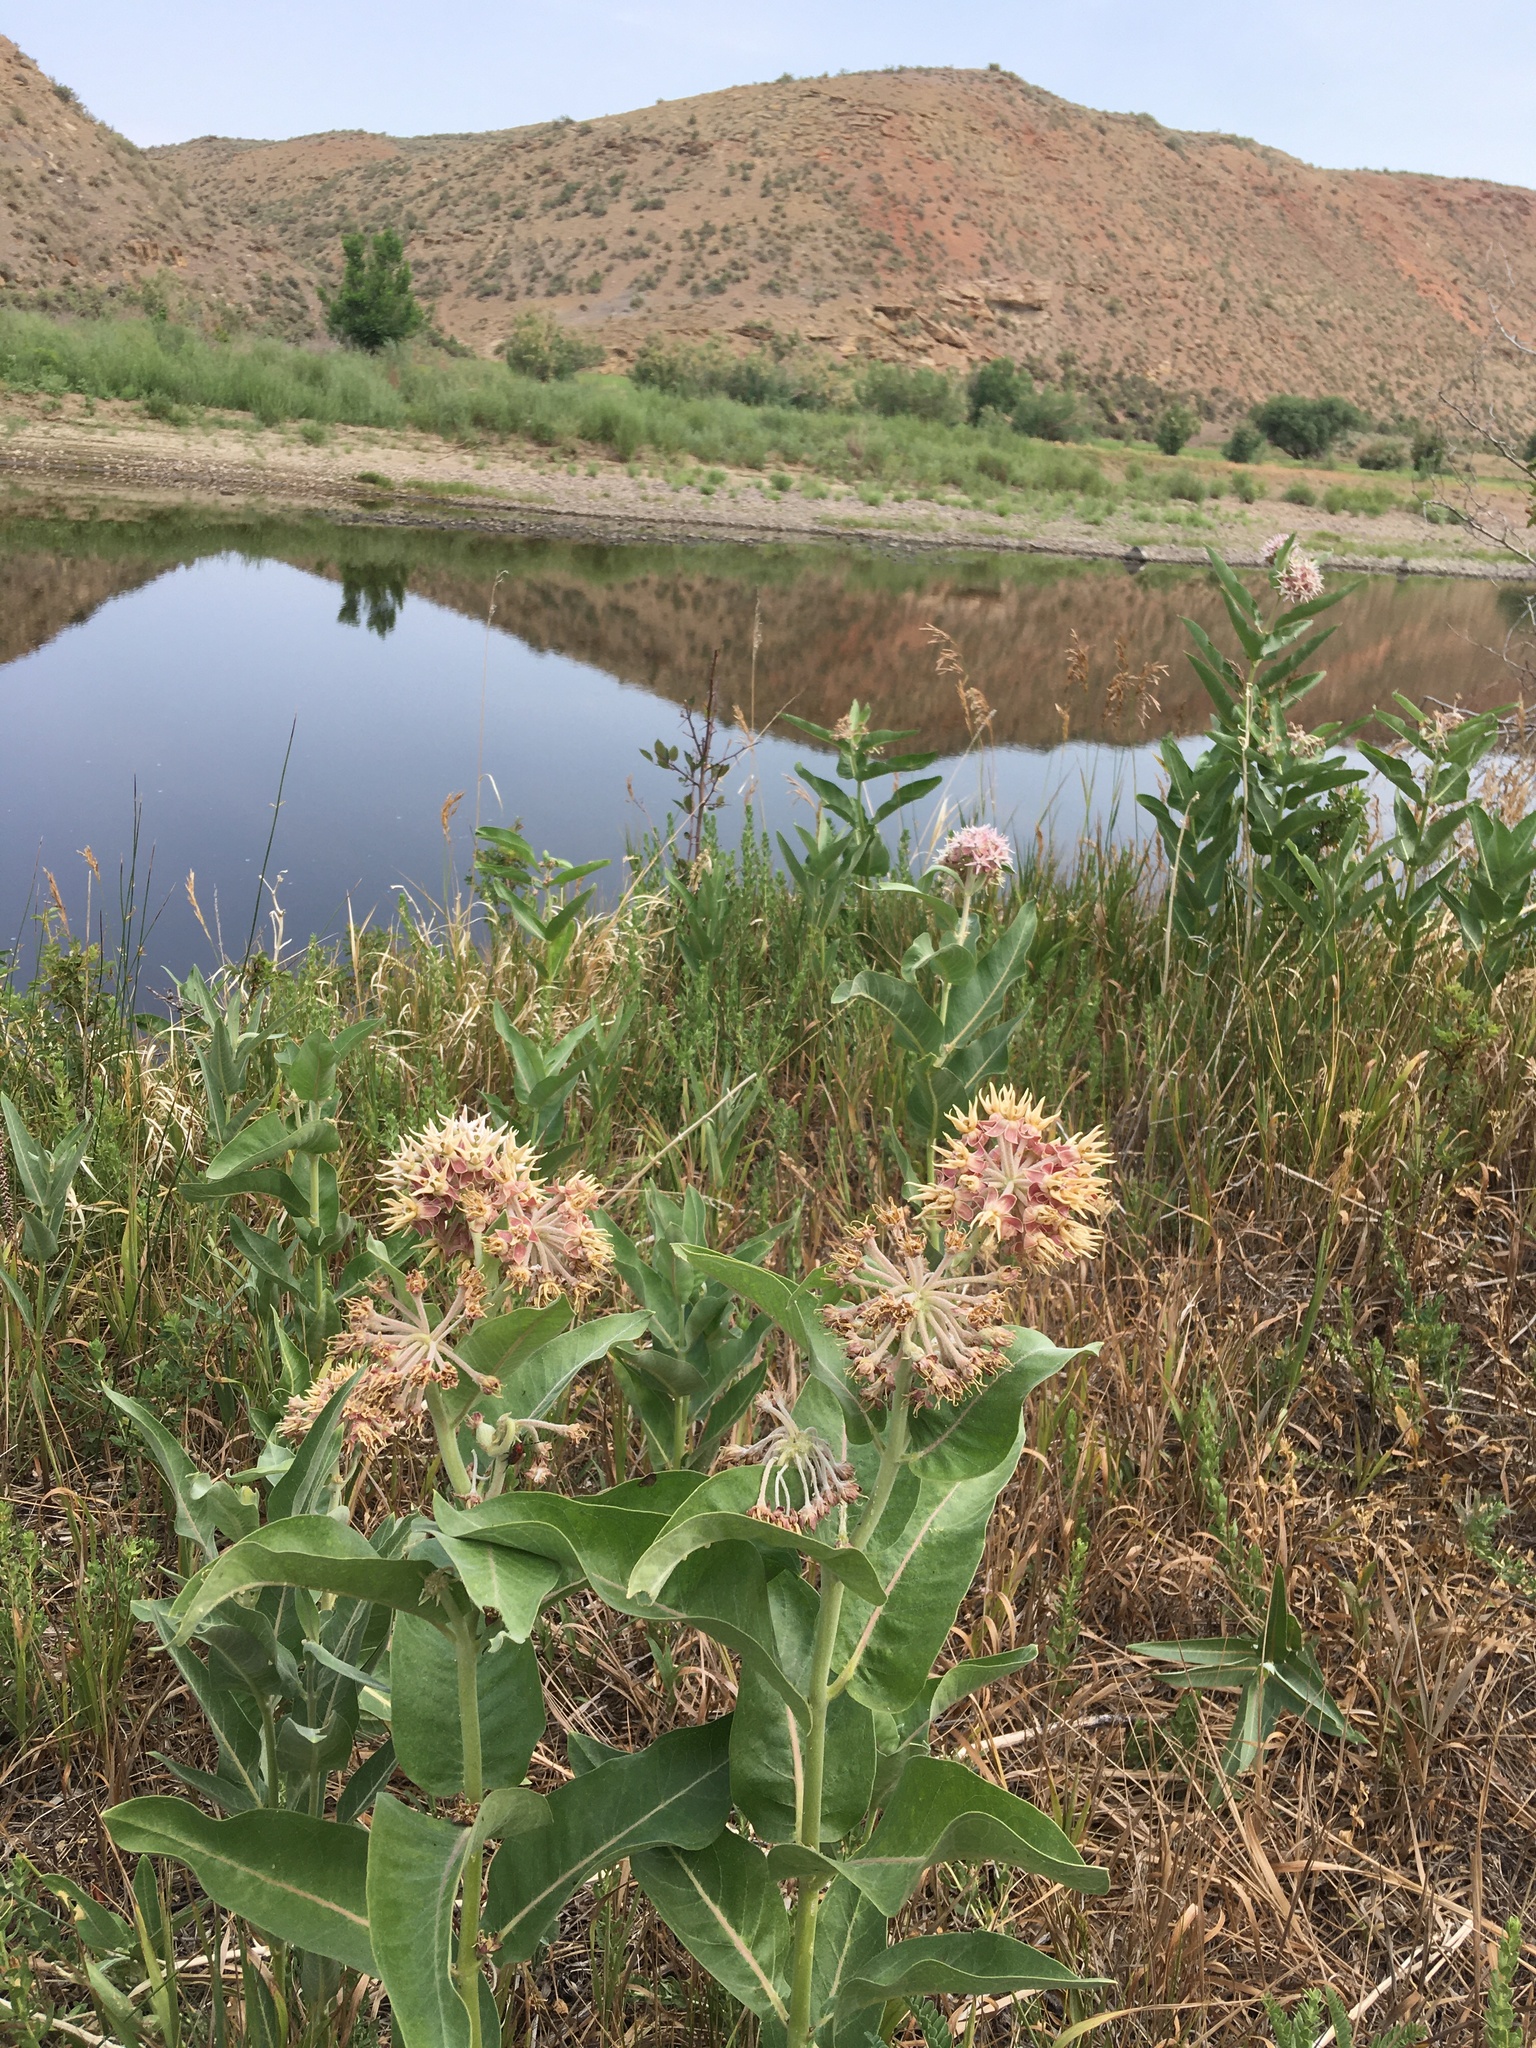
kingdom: Plantae
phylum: Tracheophyta
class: Magnoliopsida
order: Gentianales
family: Apocynaceae
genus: Asclepias
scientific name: Asclepias speciosa
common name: Showy milkweed
